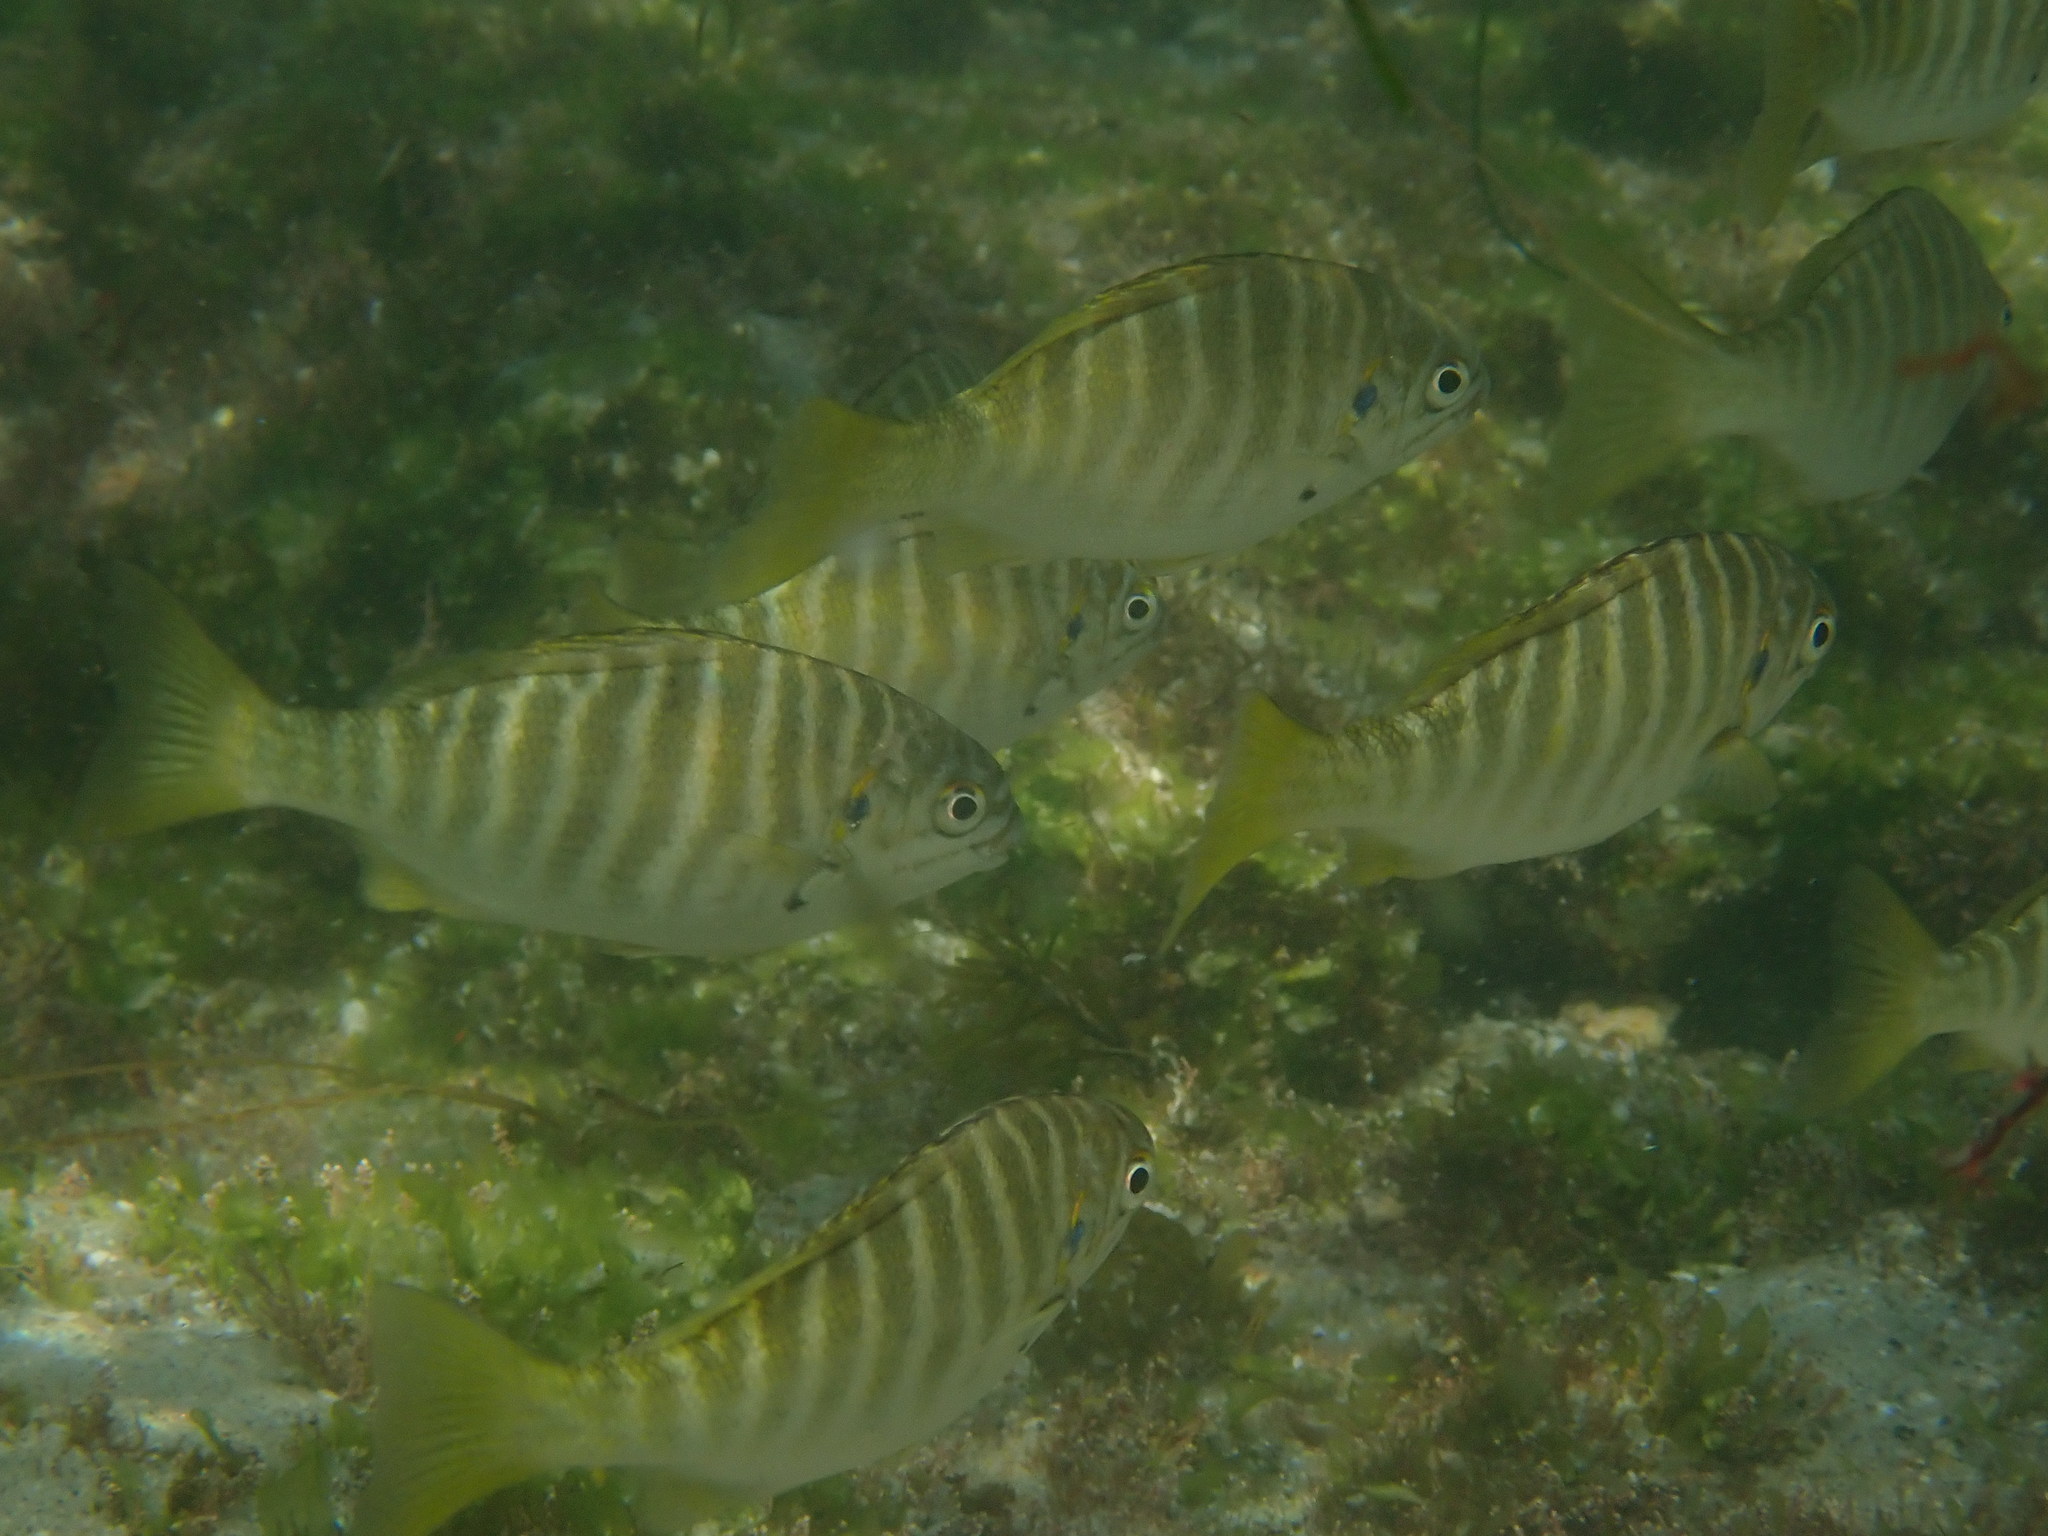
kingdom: Animalia
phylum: Chordata
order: Perciformes
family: Kyphosidae
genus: Kyphosus
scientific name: Kyphosus azureus
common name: Perch
